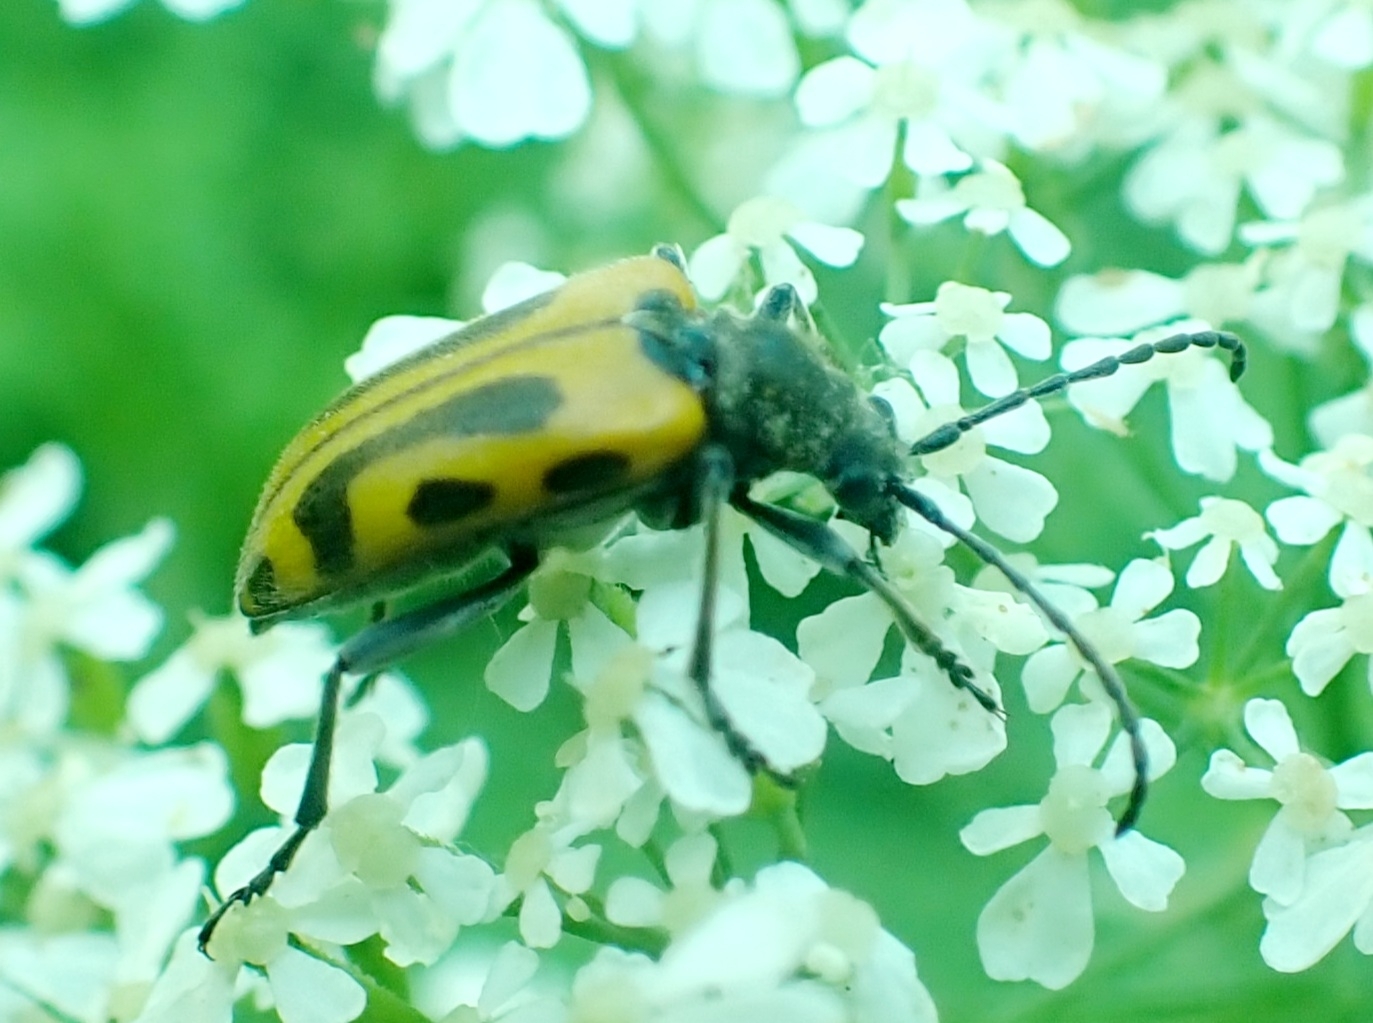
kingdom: Animalia
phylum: Arthropoda
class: Insecta
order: Coleoptera
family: Cerambycidae
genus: Brachyta
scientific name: Brachyta interrogationis
